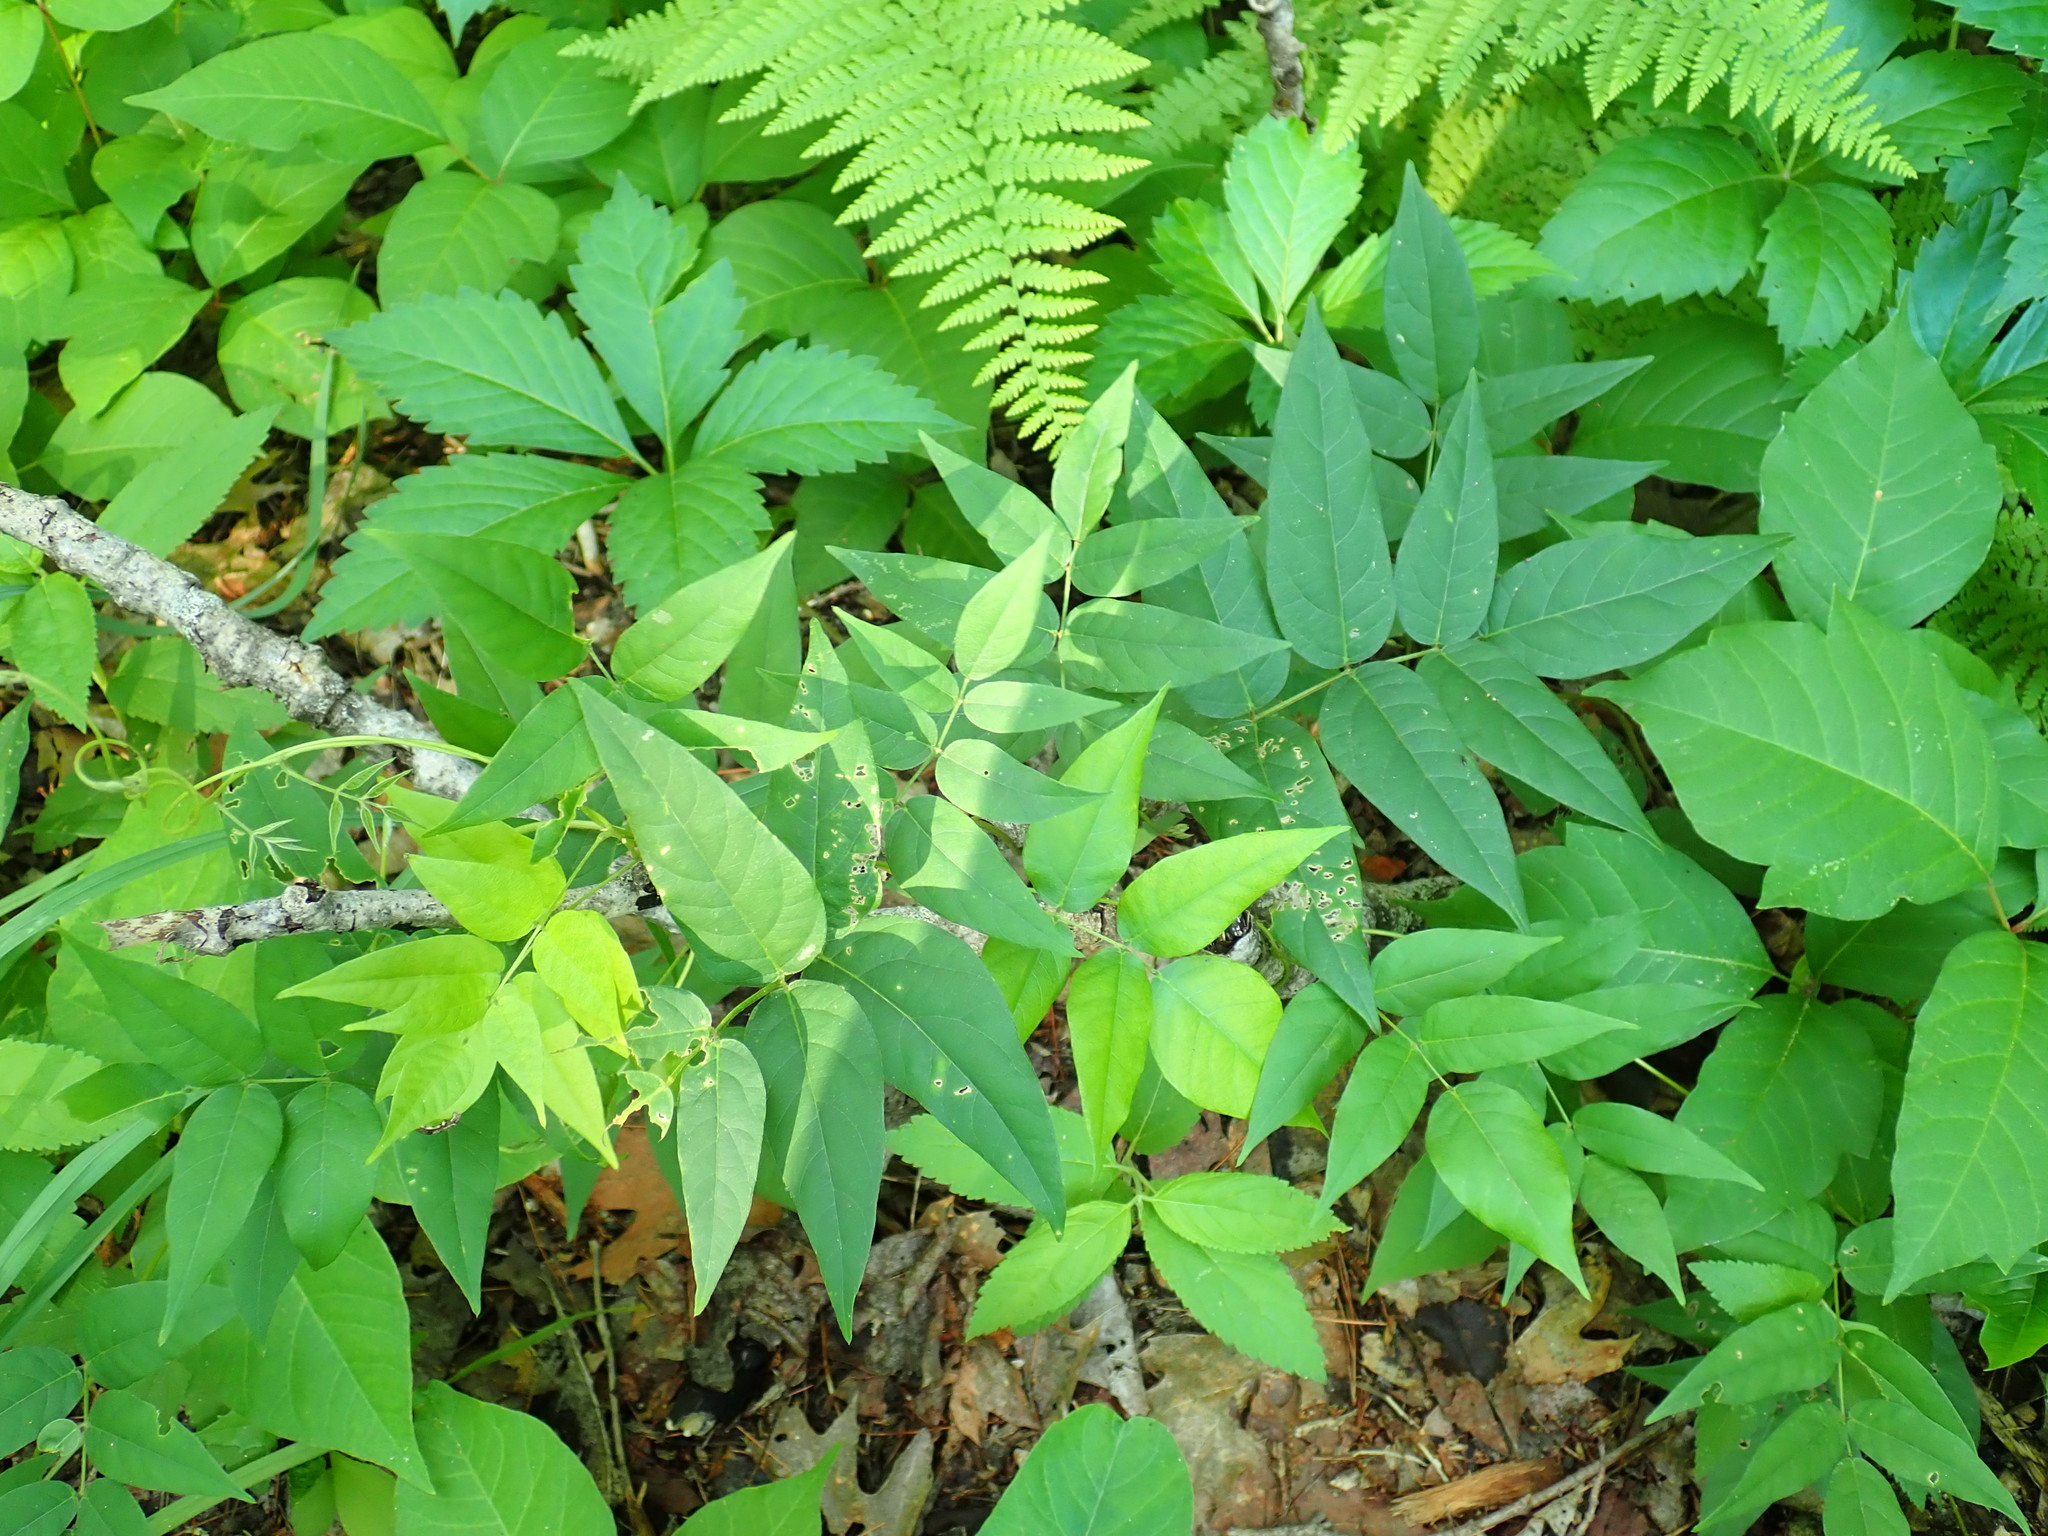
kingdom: Plantae
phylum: Tracheophyta
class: Magnoliopsida
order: Fabales
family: Fabaceae
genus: Apios
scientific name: Apios americana
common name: American potato-bean
